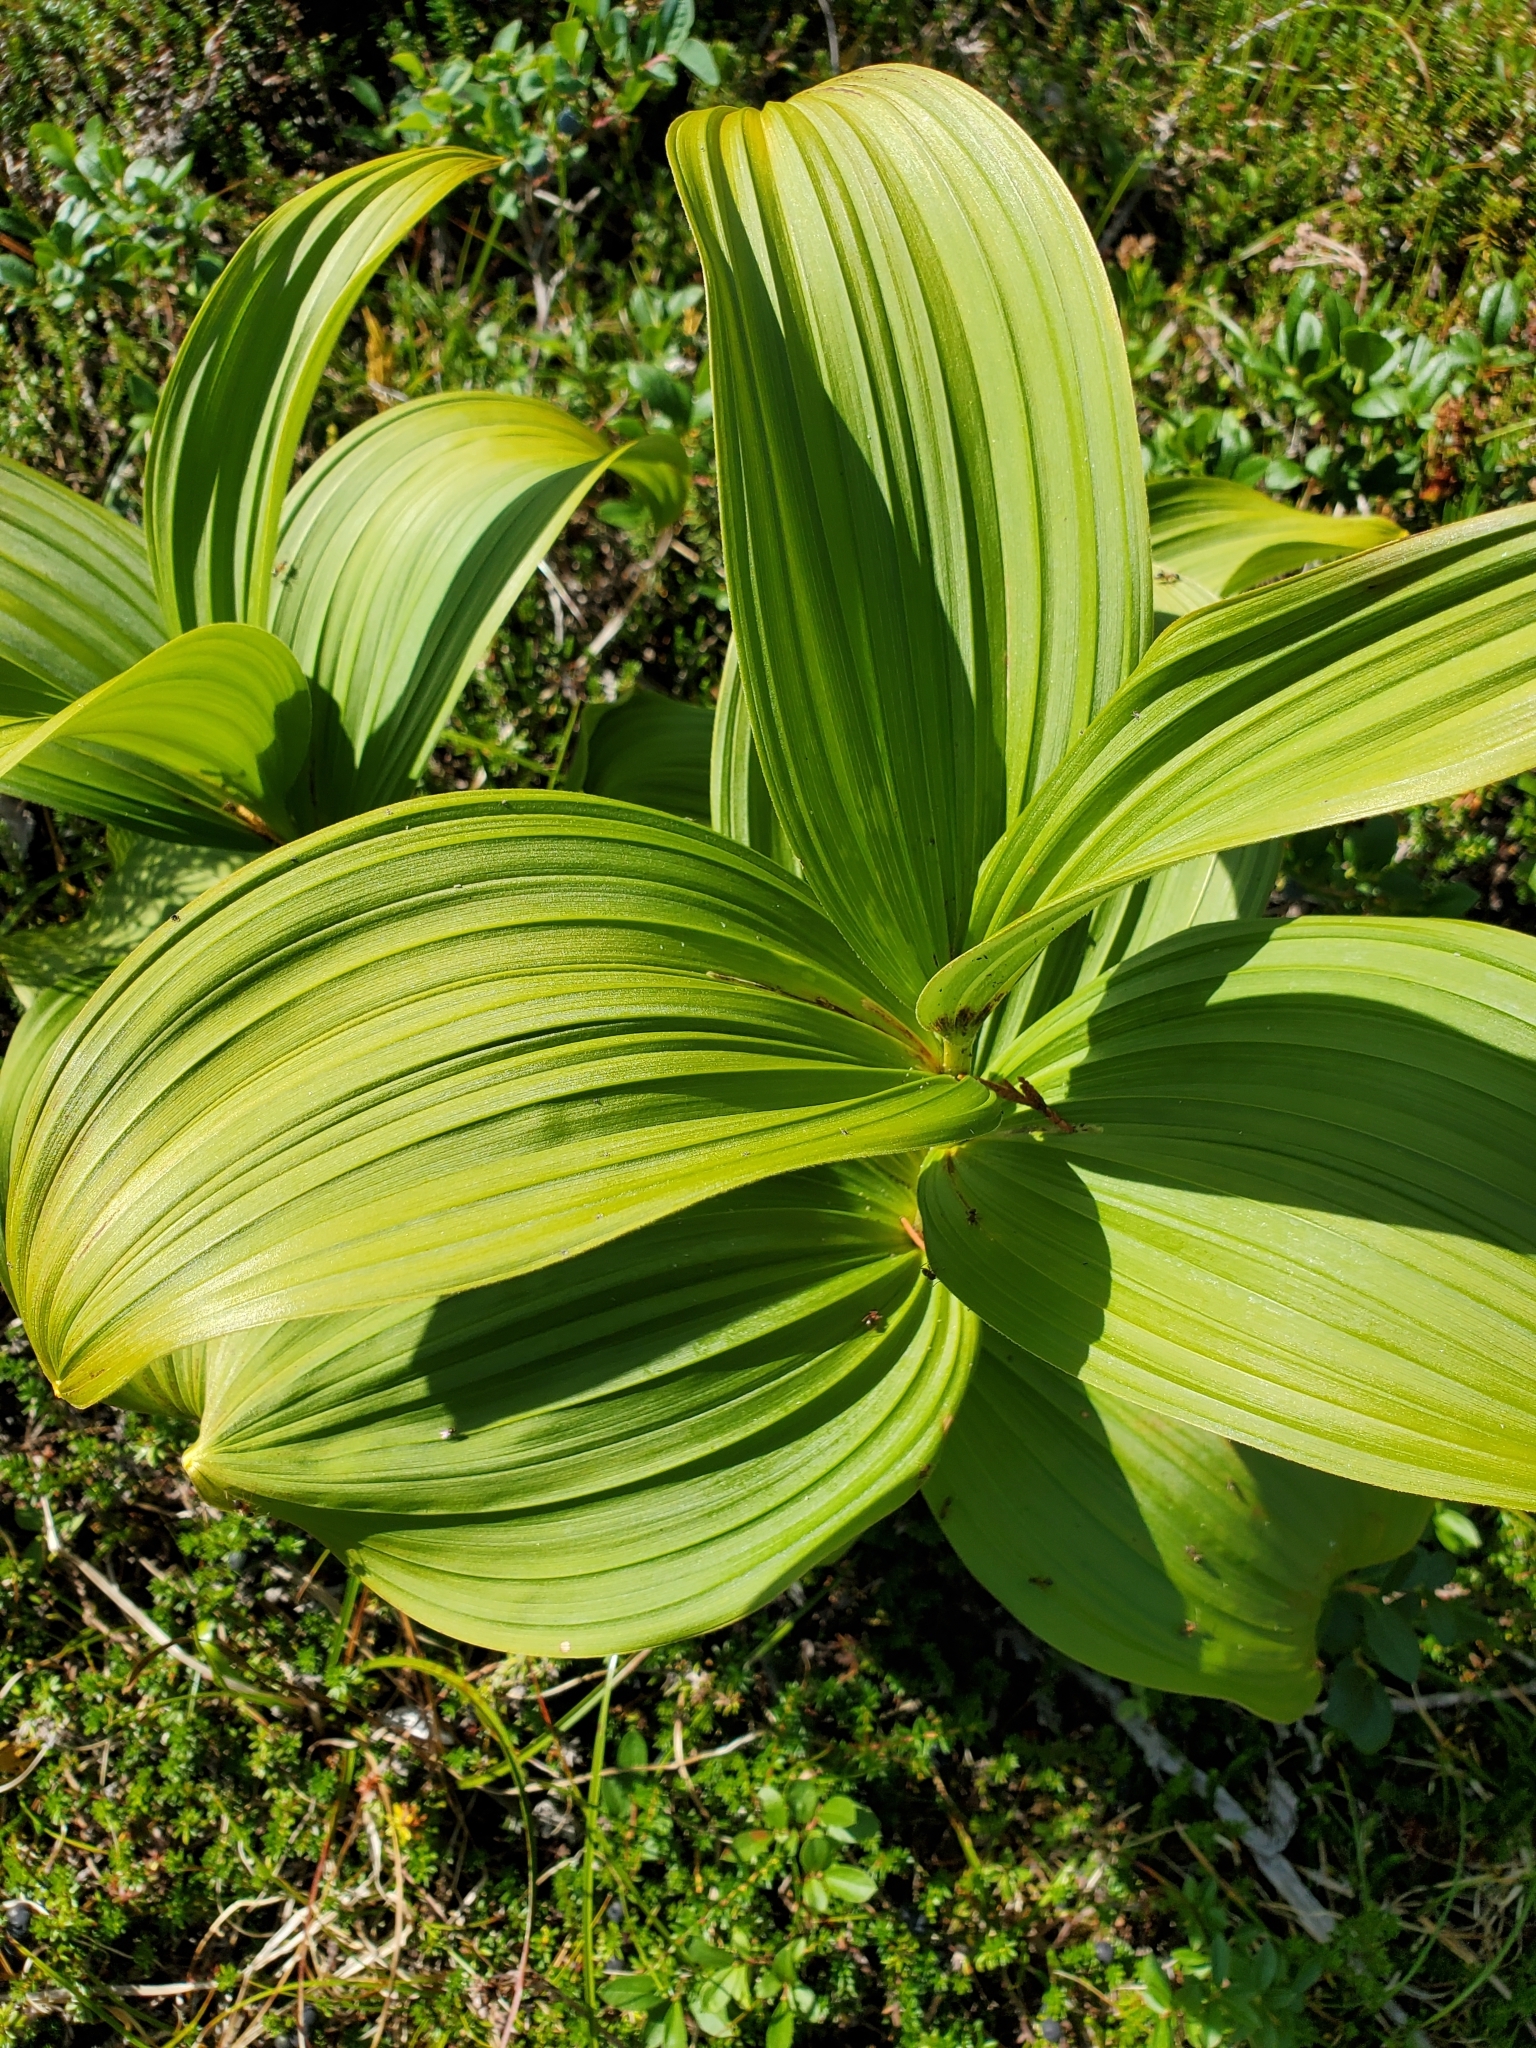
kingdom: Plantae
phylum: Tracheophyta
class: Liliopsida
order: Liliales
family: Melanthiaceae
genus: Veratrum
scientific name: Veratrum viride
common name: American false hellebore
